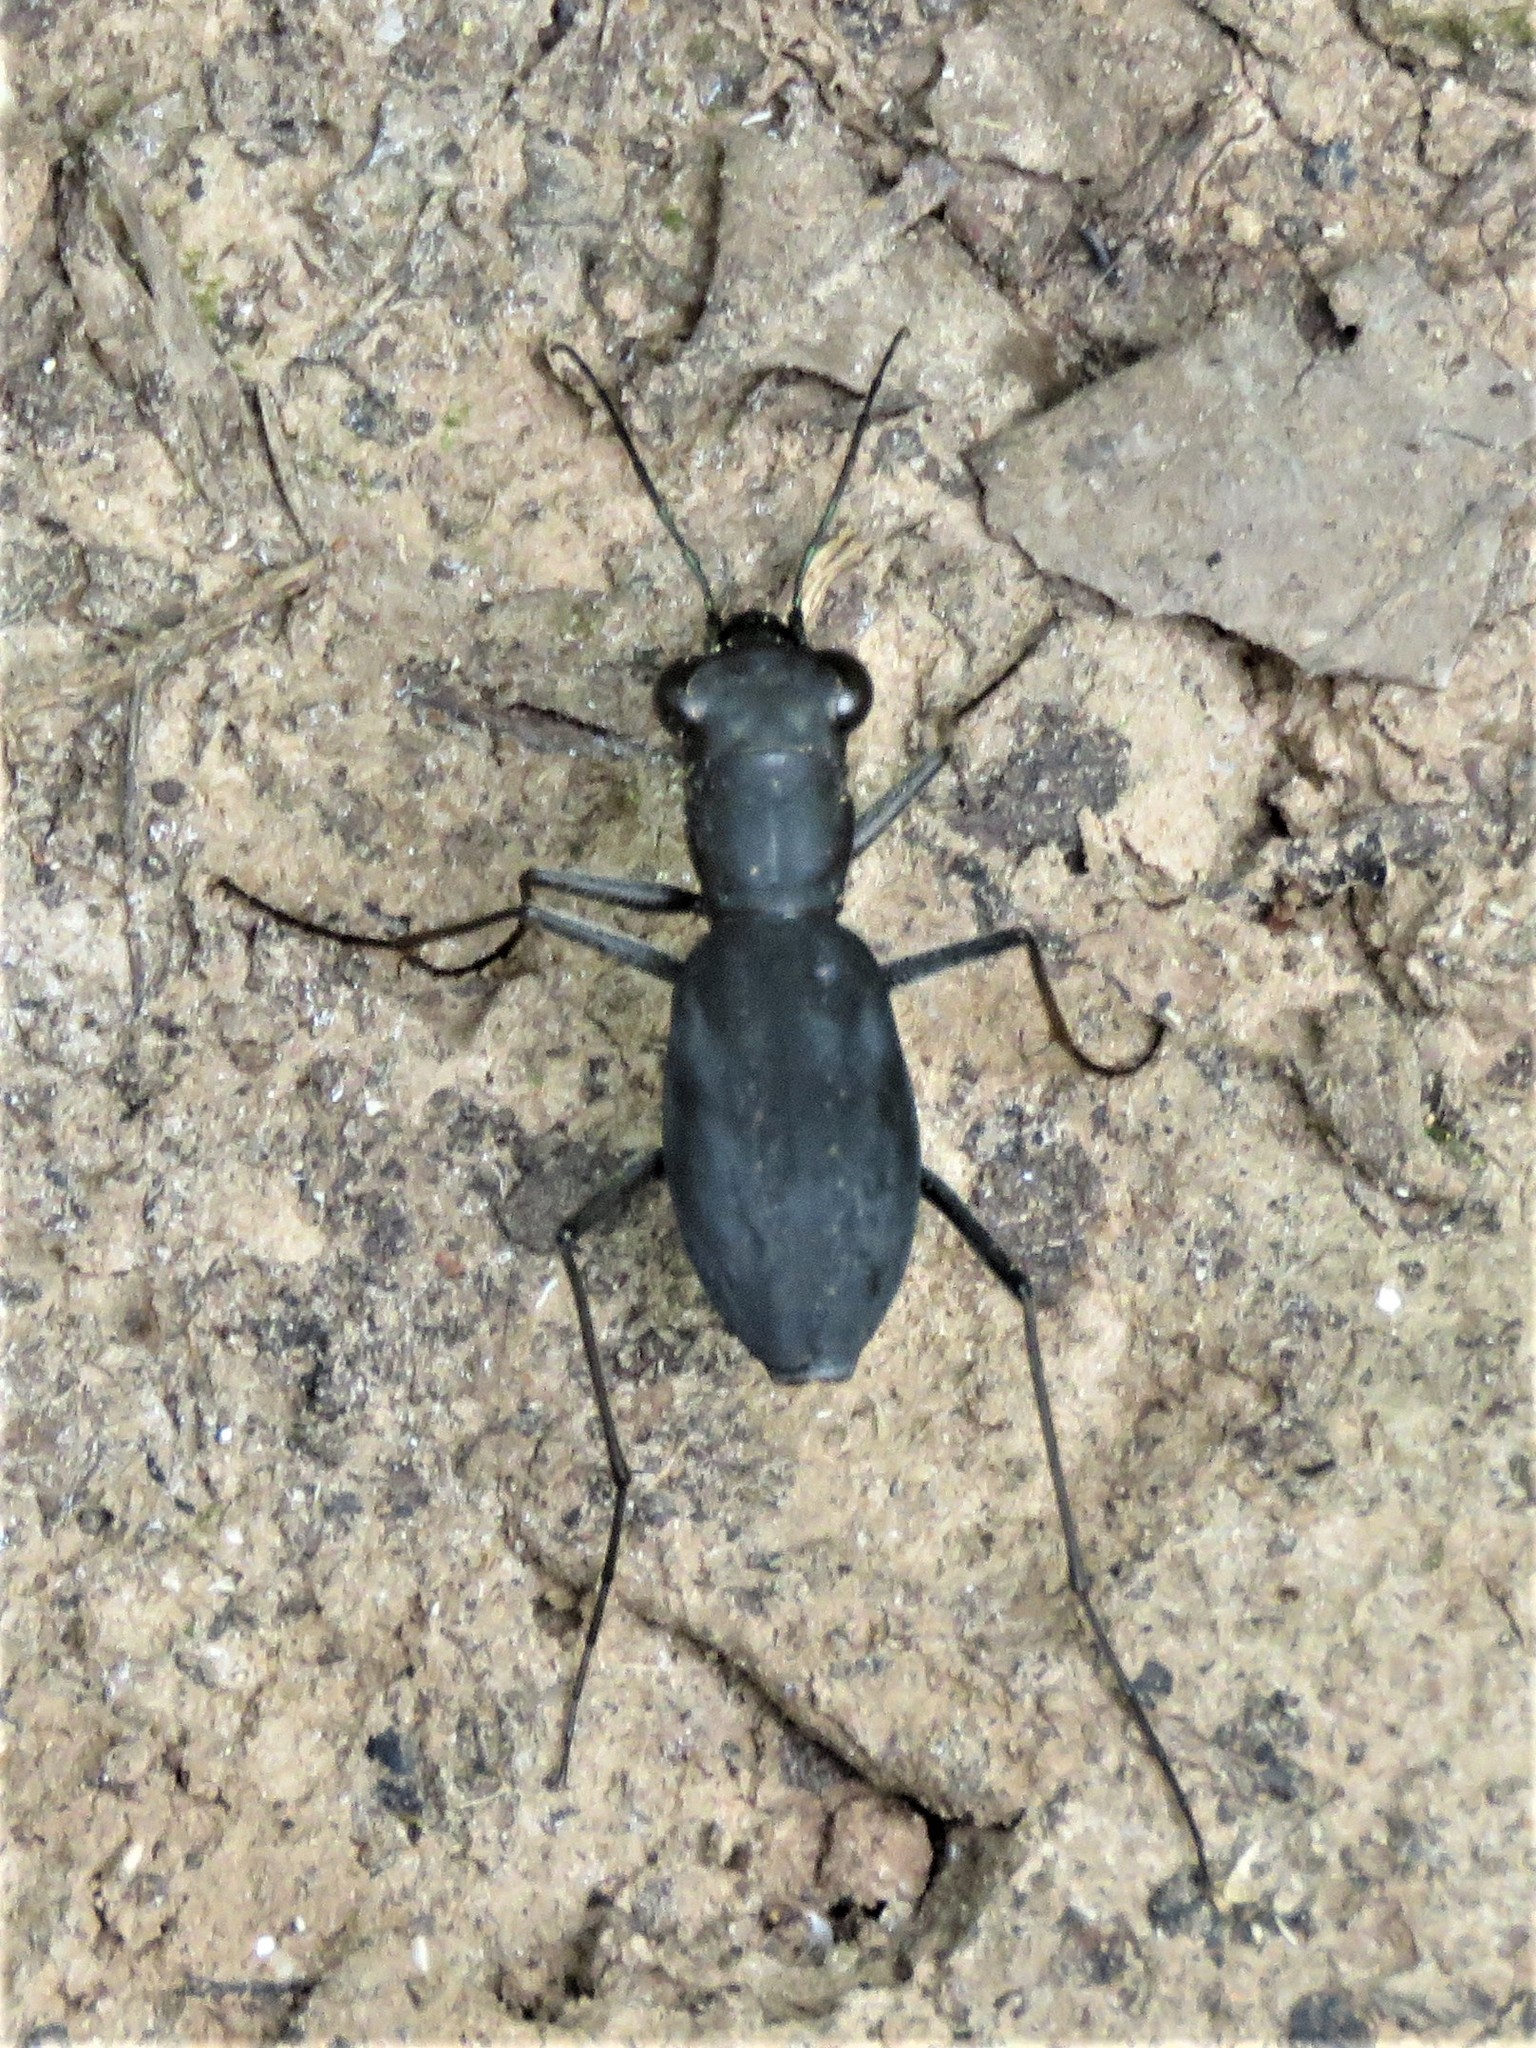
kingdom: Animalia
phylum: Arthropoda
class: Insecta
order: Coleoptera
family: Carabidae
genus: Dromochorus
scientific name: Dromochorus pilatei
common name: Cajun dromo tiger beetle
